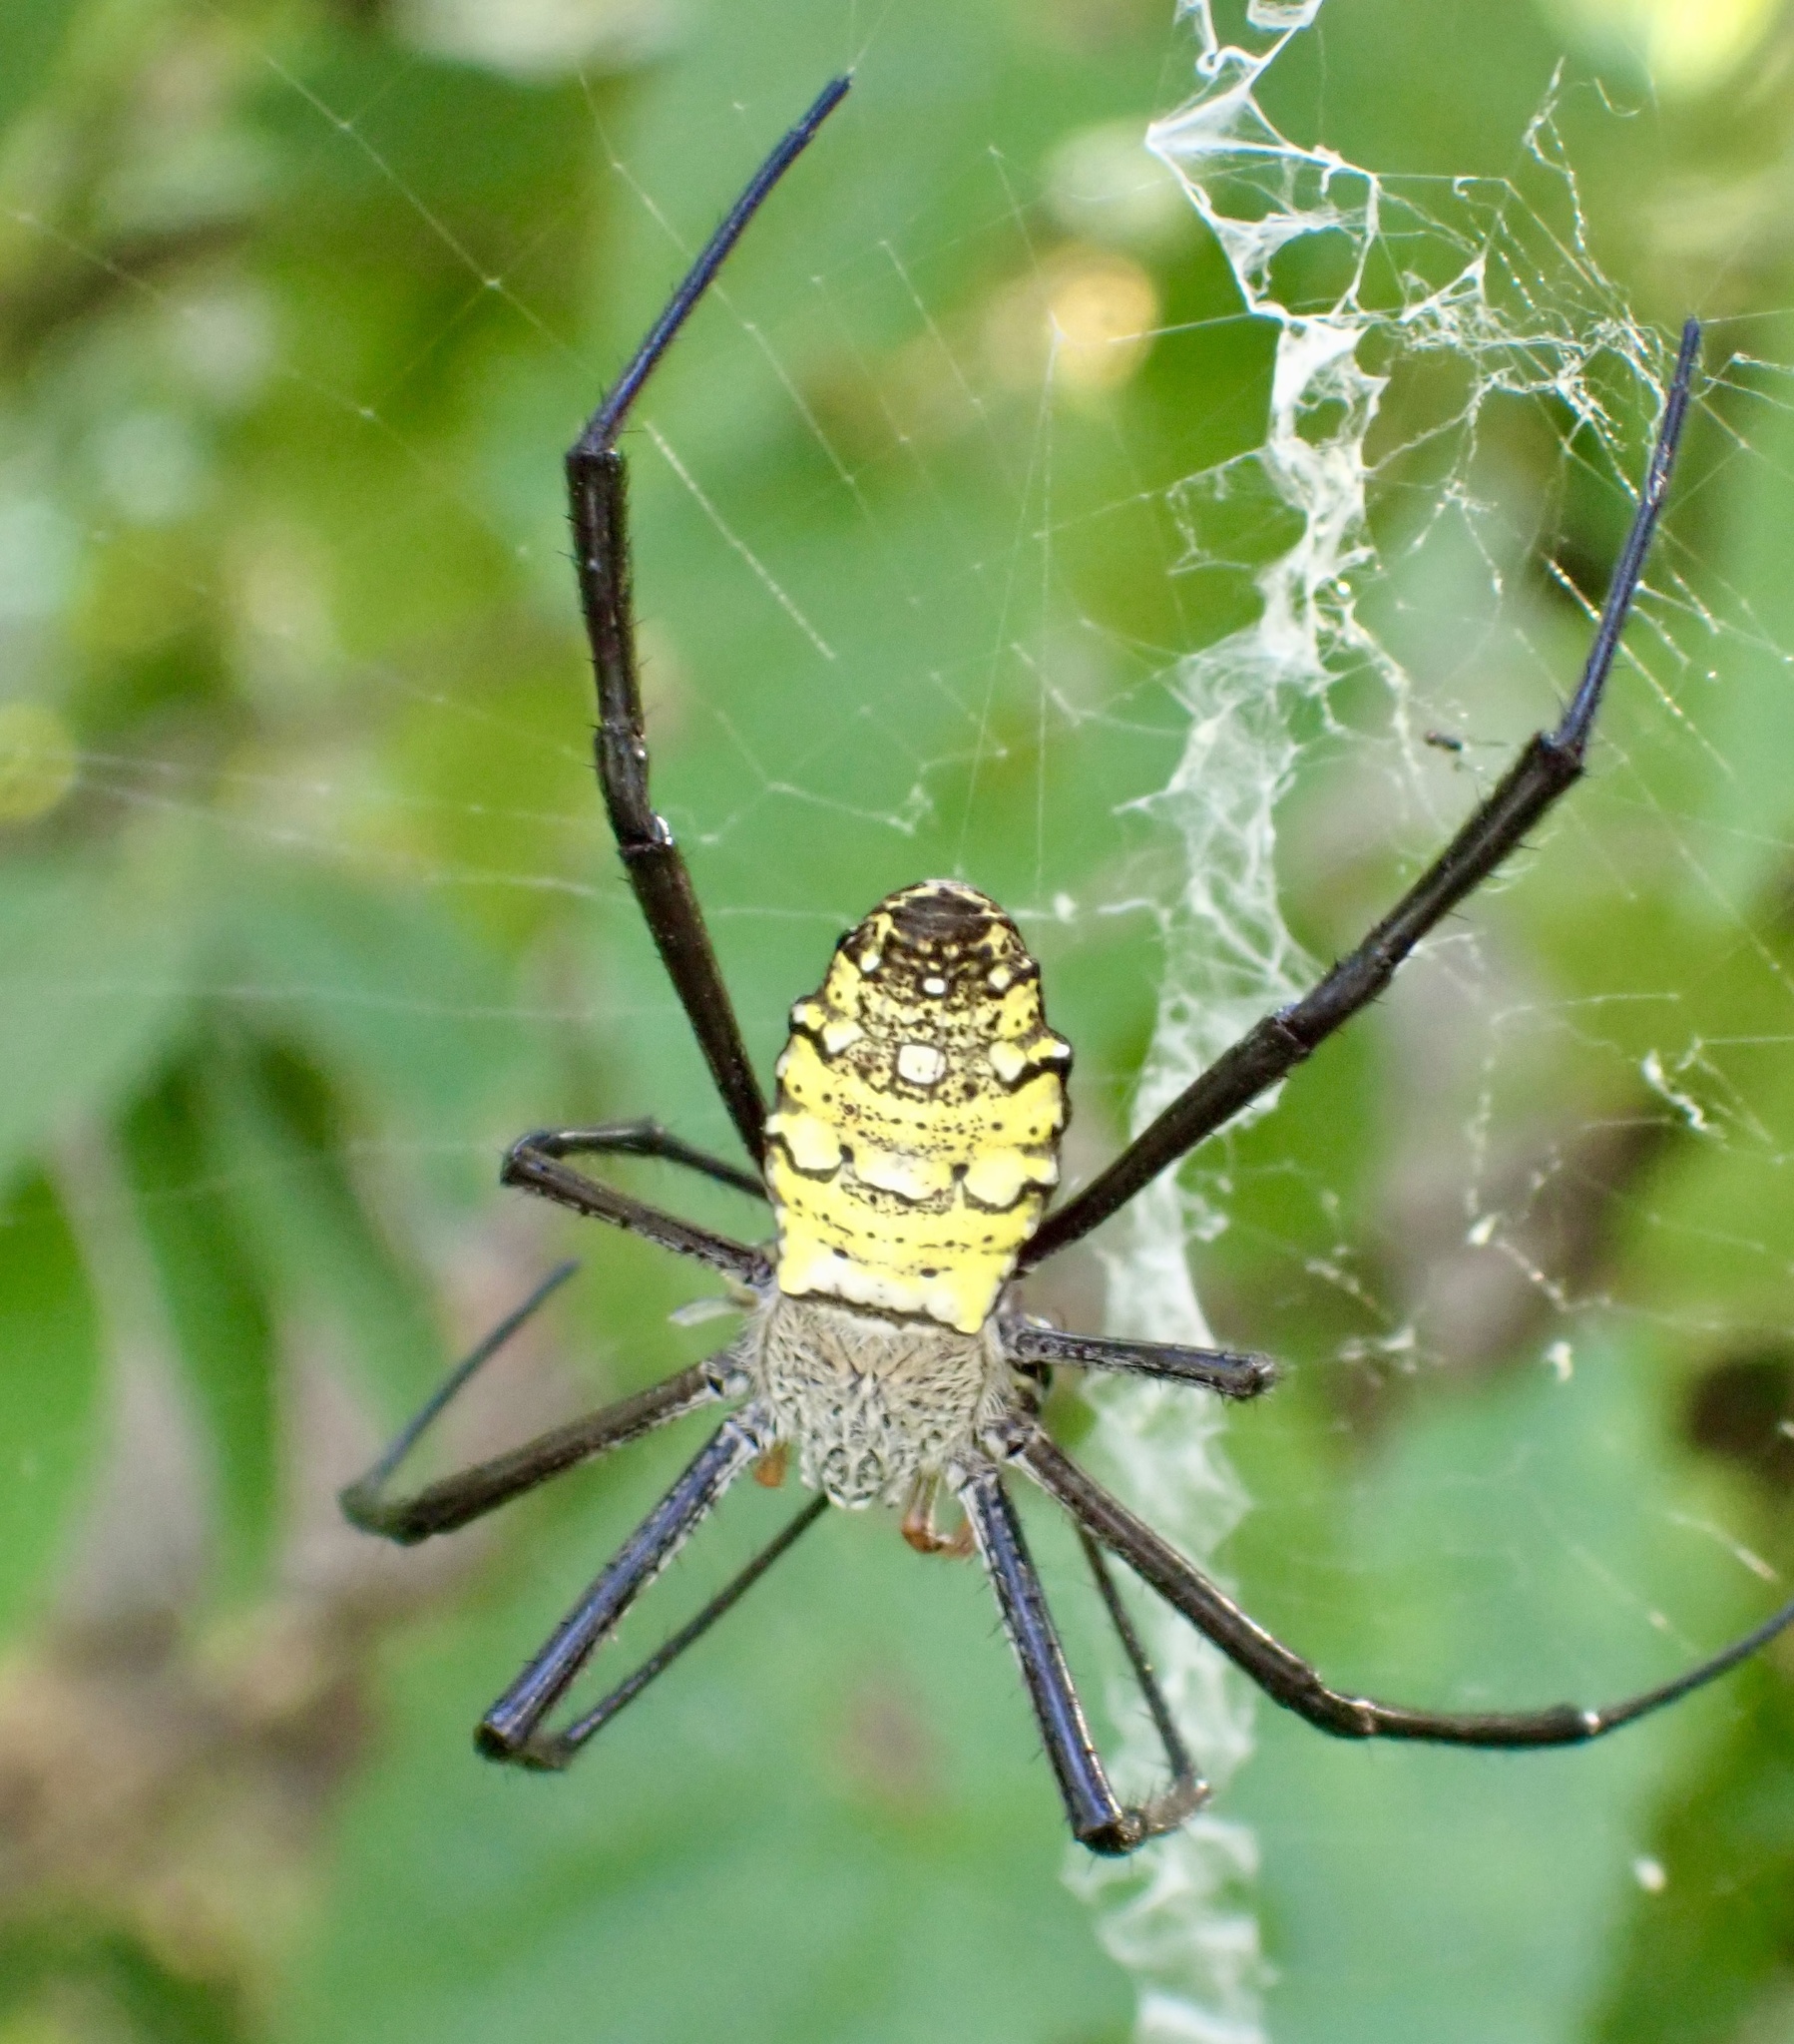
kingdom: Animalia
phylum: Arthropoda
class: Arachnida
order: Araneae
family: Araneidae
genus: Argiope
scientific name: Argiope picta
